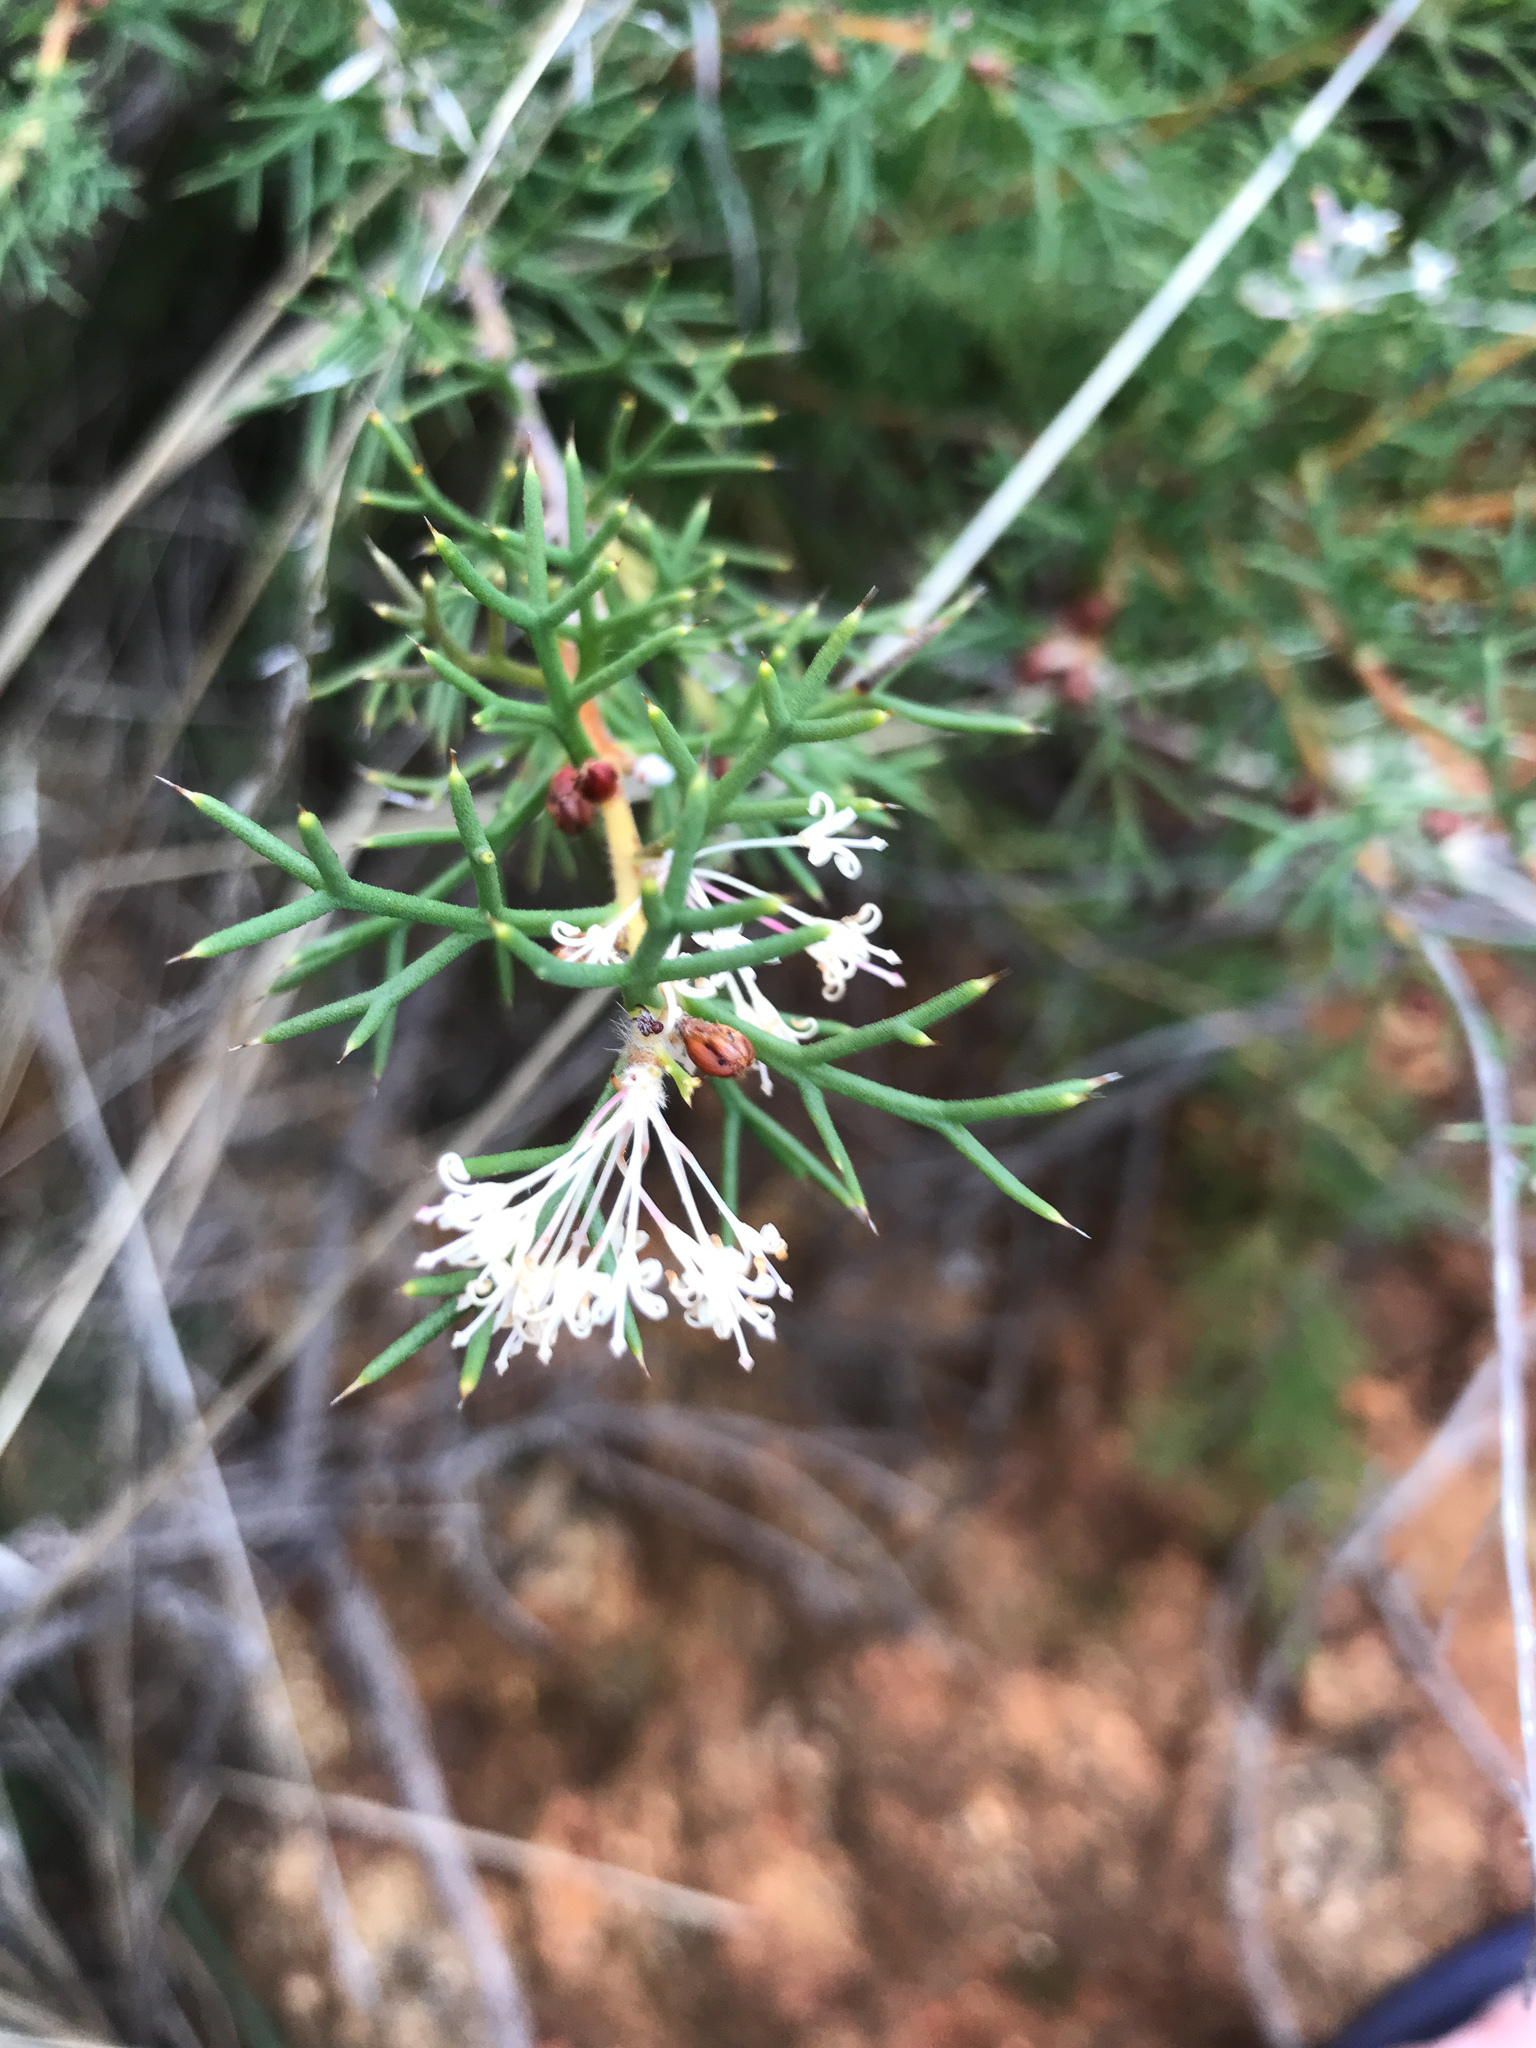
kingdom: Plantae
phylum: Tracheophyta
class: Magnoliopsida
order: Proteales
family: Proteaceae
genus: Hakea
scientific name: Hakea lissocarpha
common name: Honey bush
